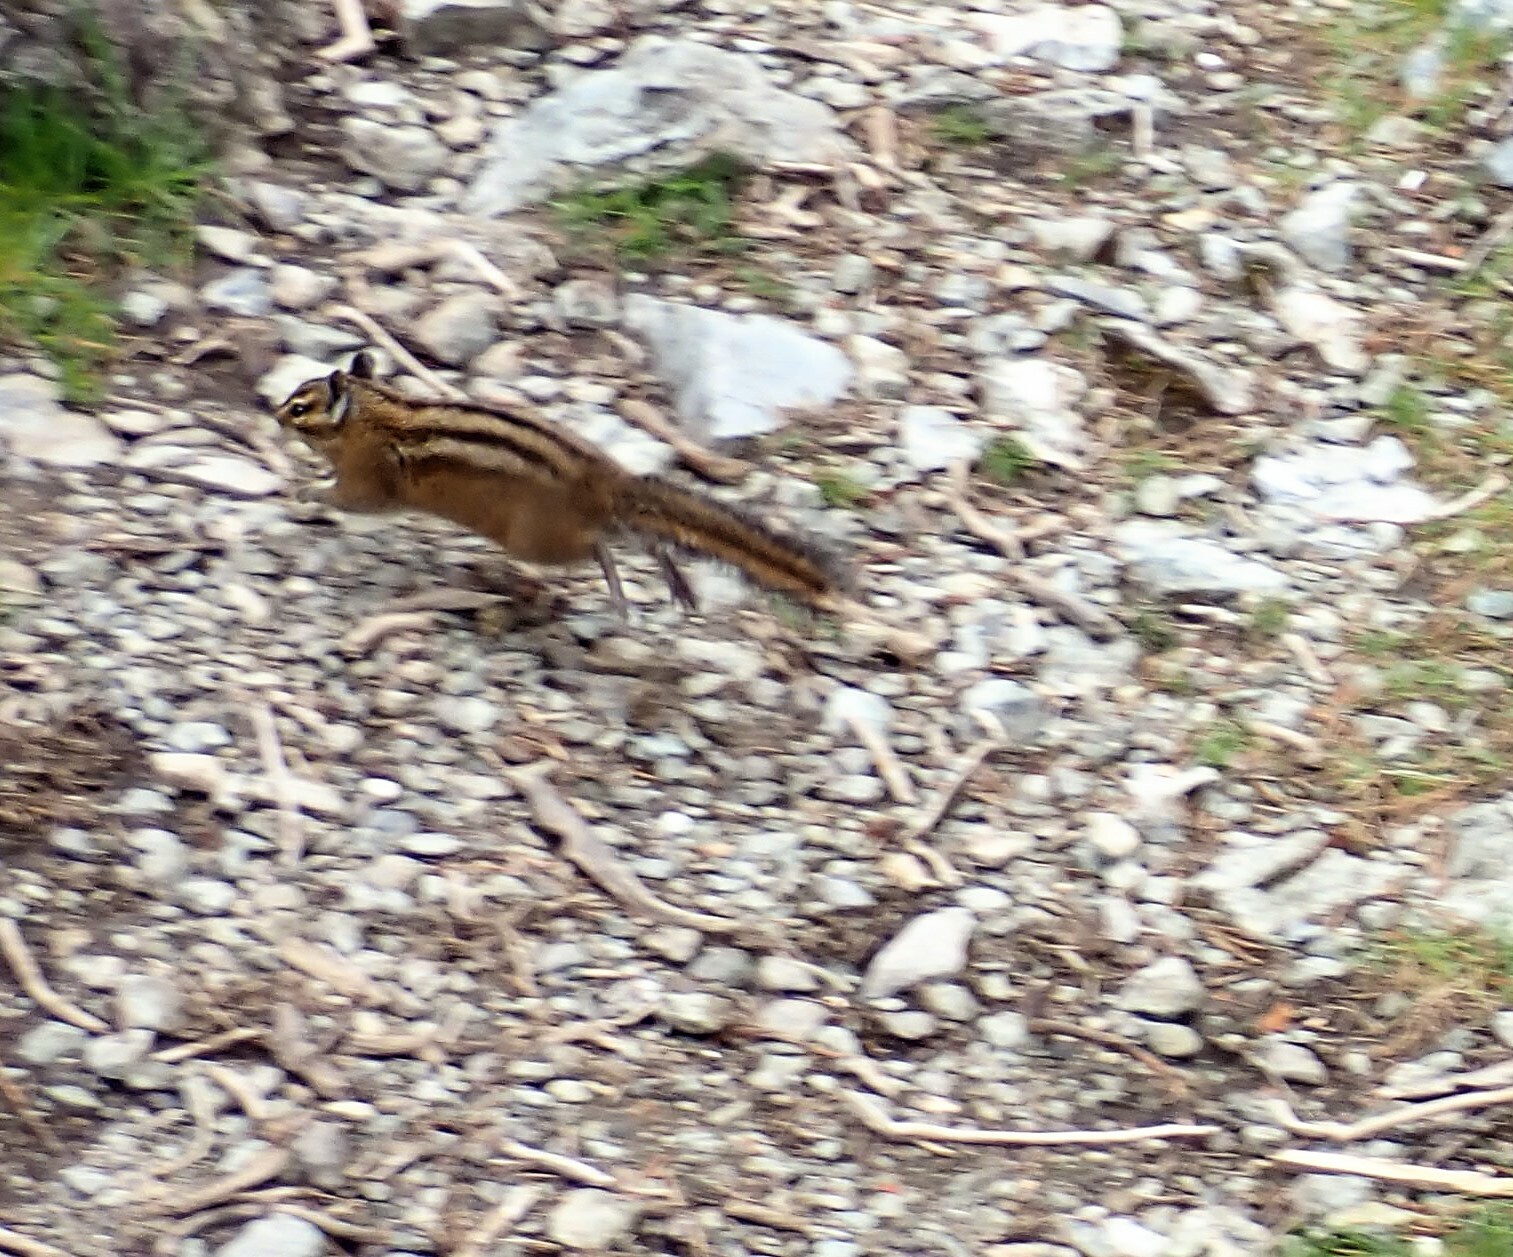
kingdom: Animalia
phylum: Chordata
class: Mammalia
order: Rodentia
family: Sciuridae
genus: Tamias
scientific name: Tamias townsendii
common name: Townsend's chipmunk
